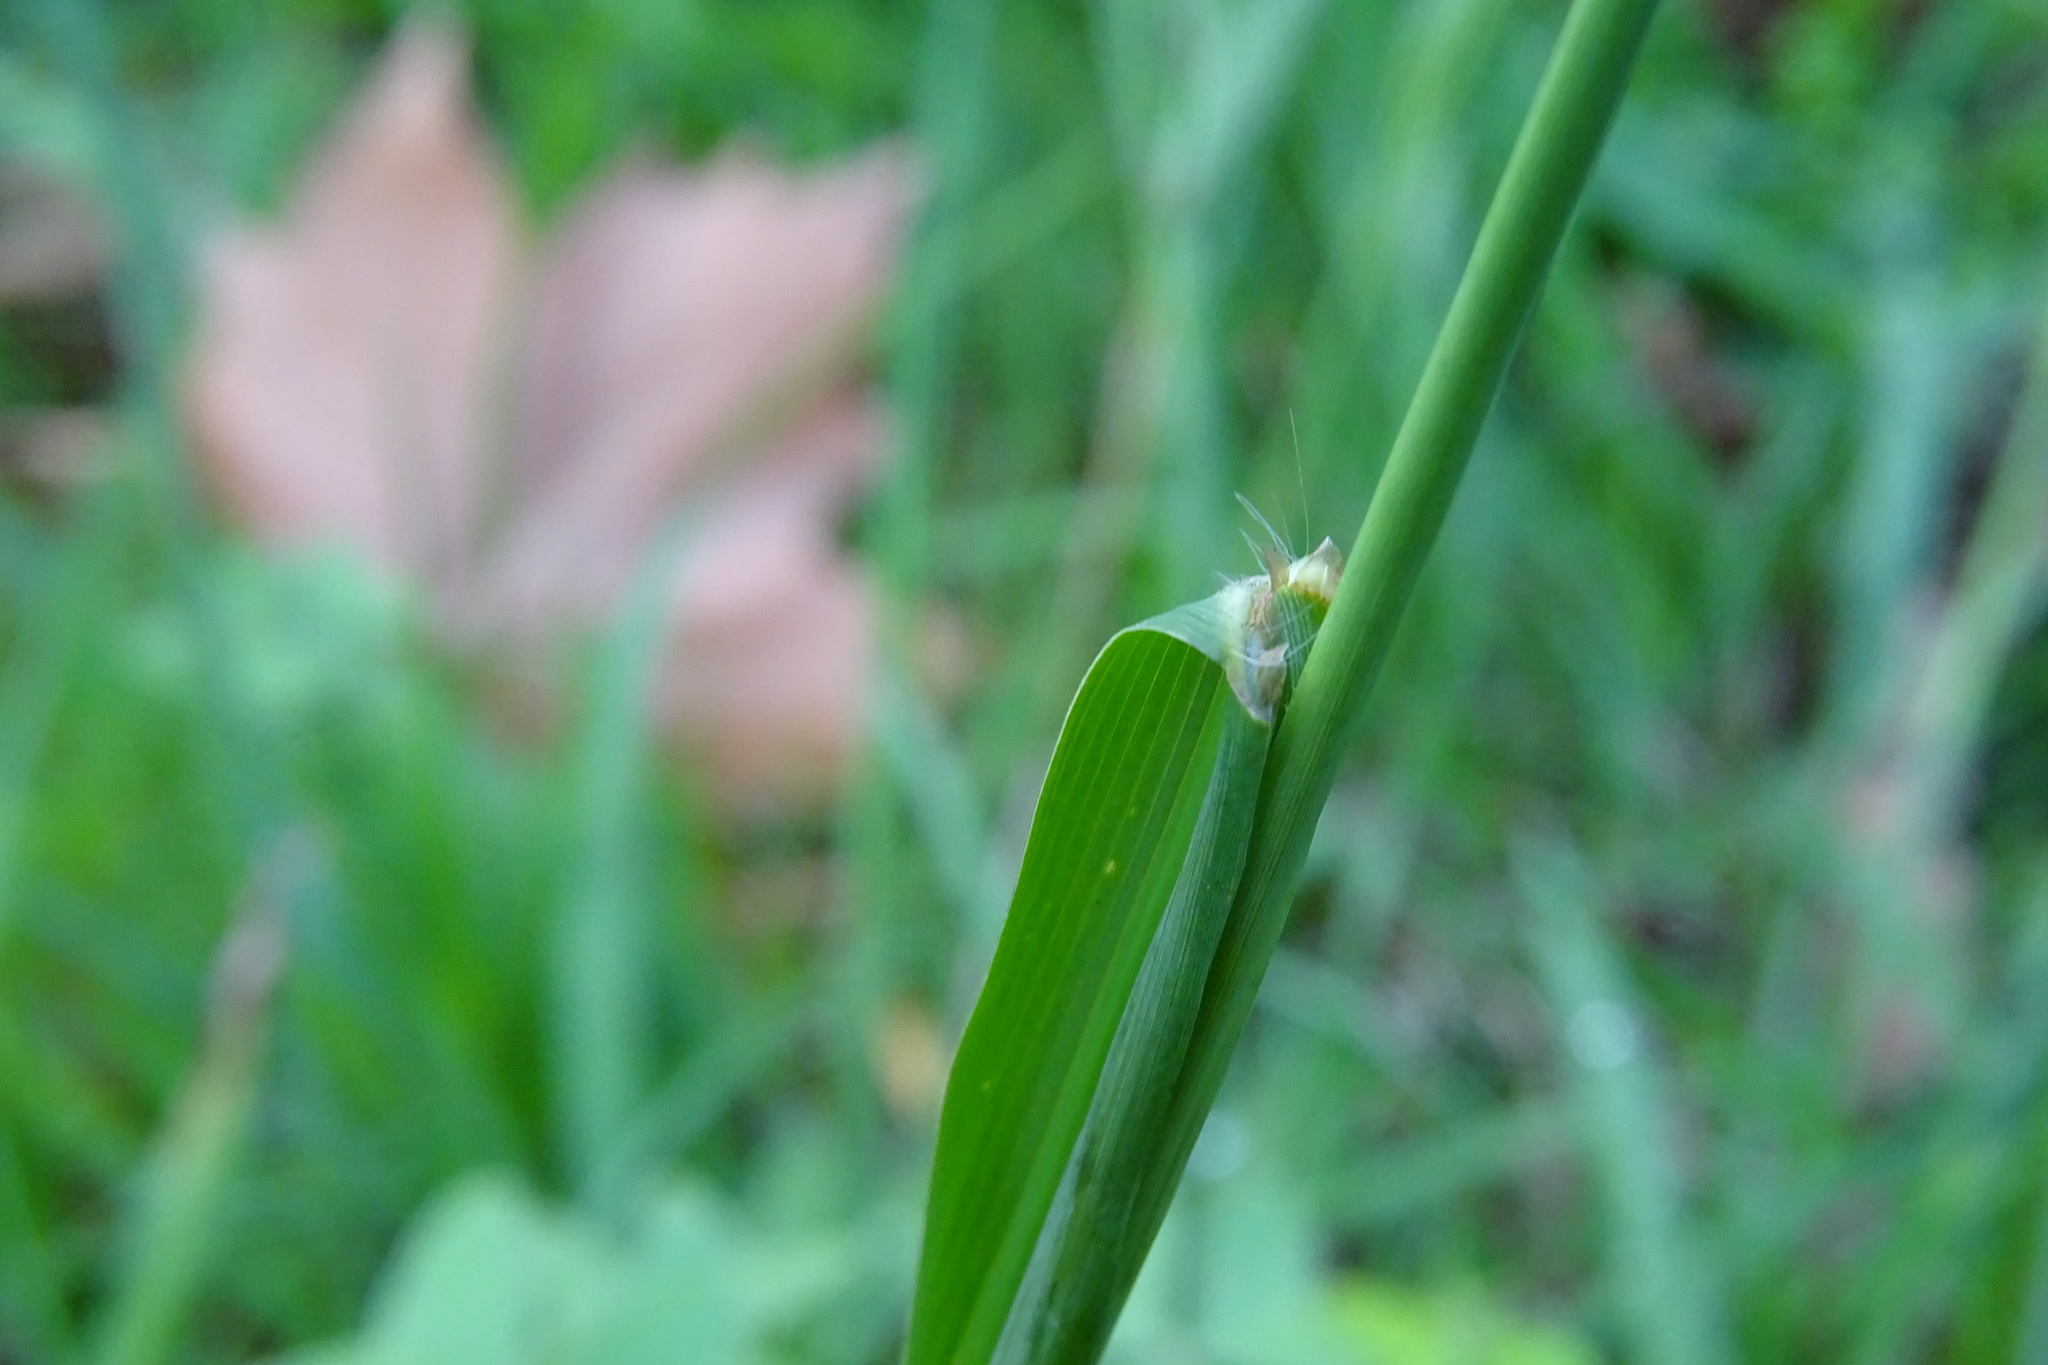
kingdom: Plantae
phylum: Tracheophyta
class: Liliopsida
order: Poales
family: Poaceae
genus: Paspalum
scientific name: Paspalum dilatatum
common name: Dallisgrass
